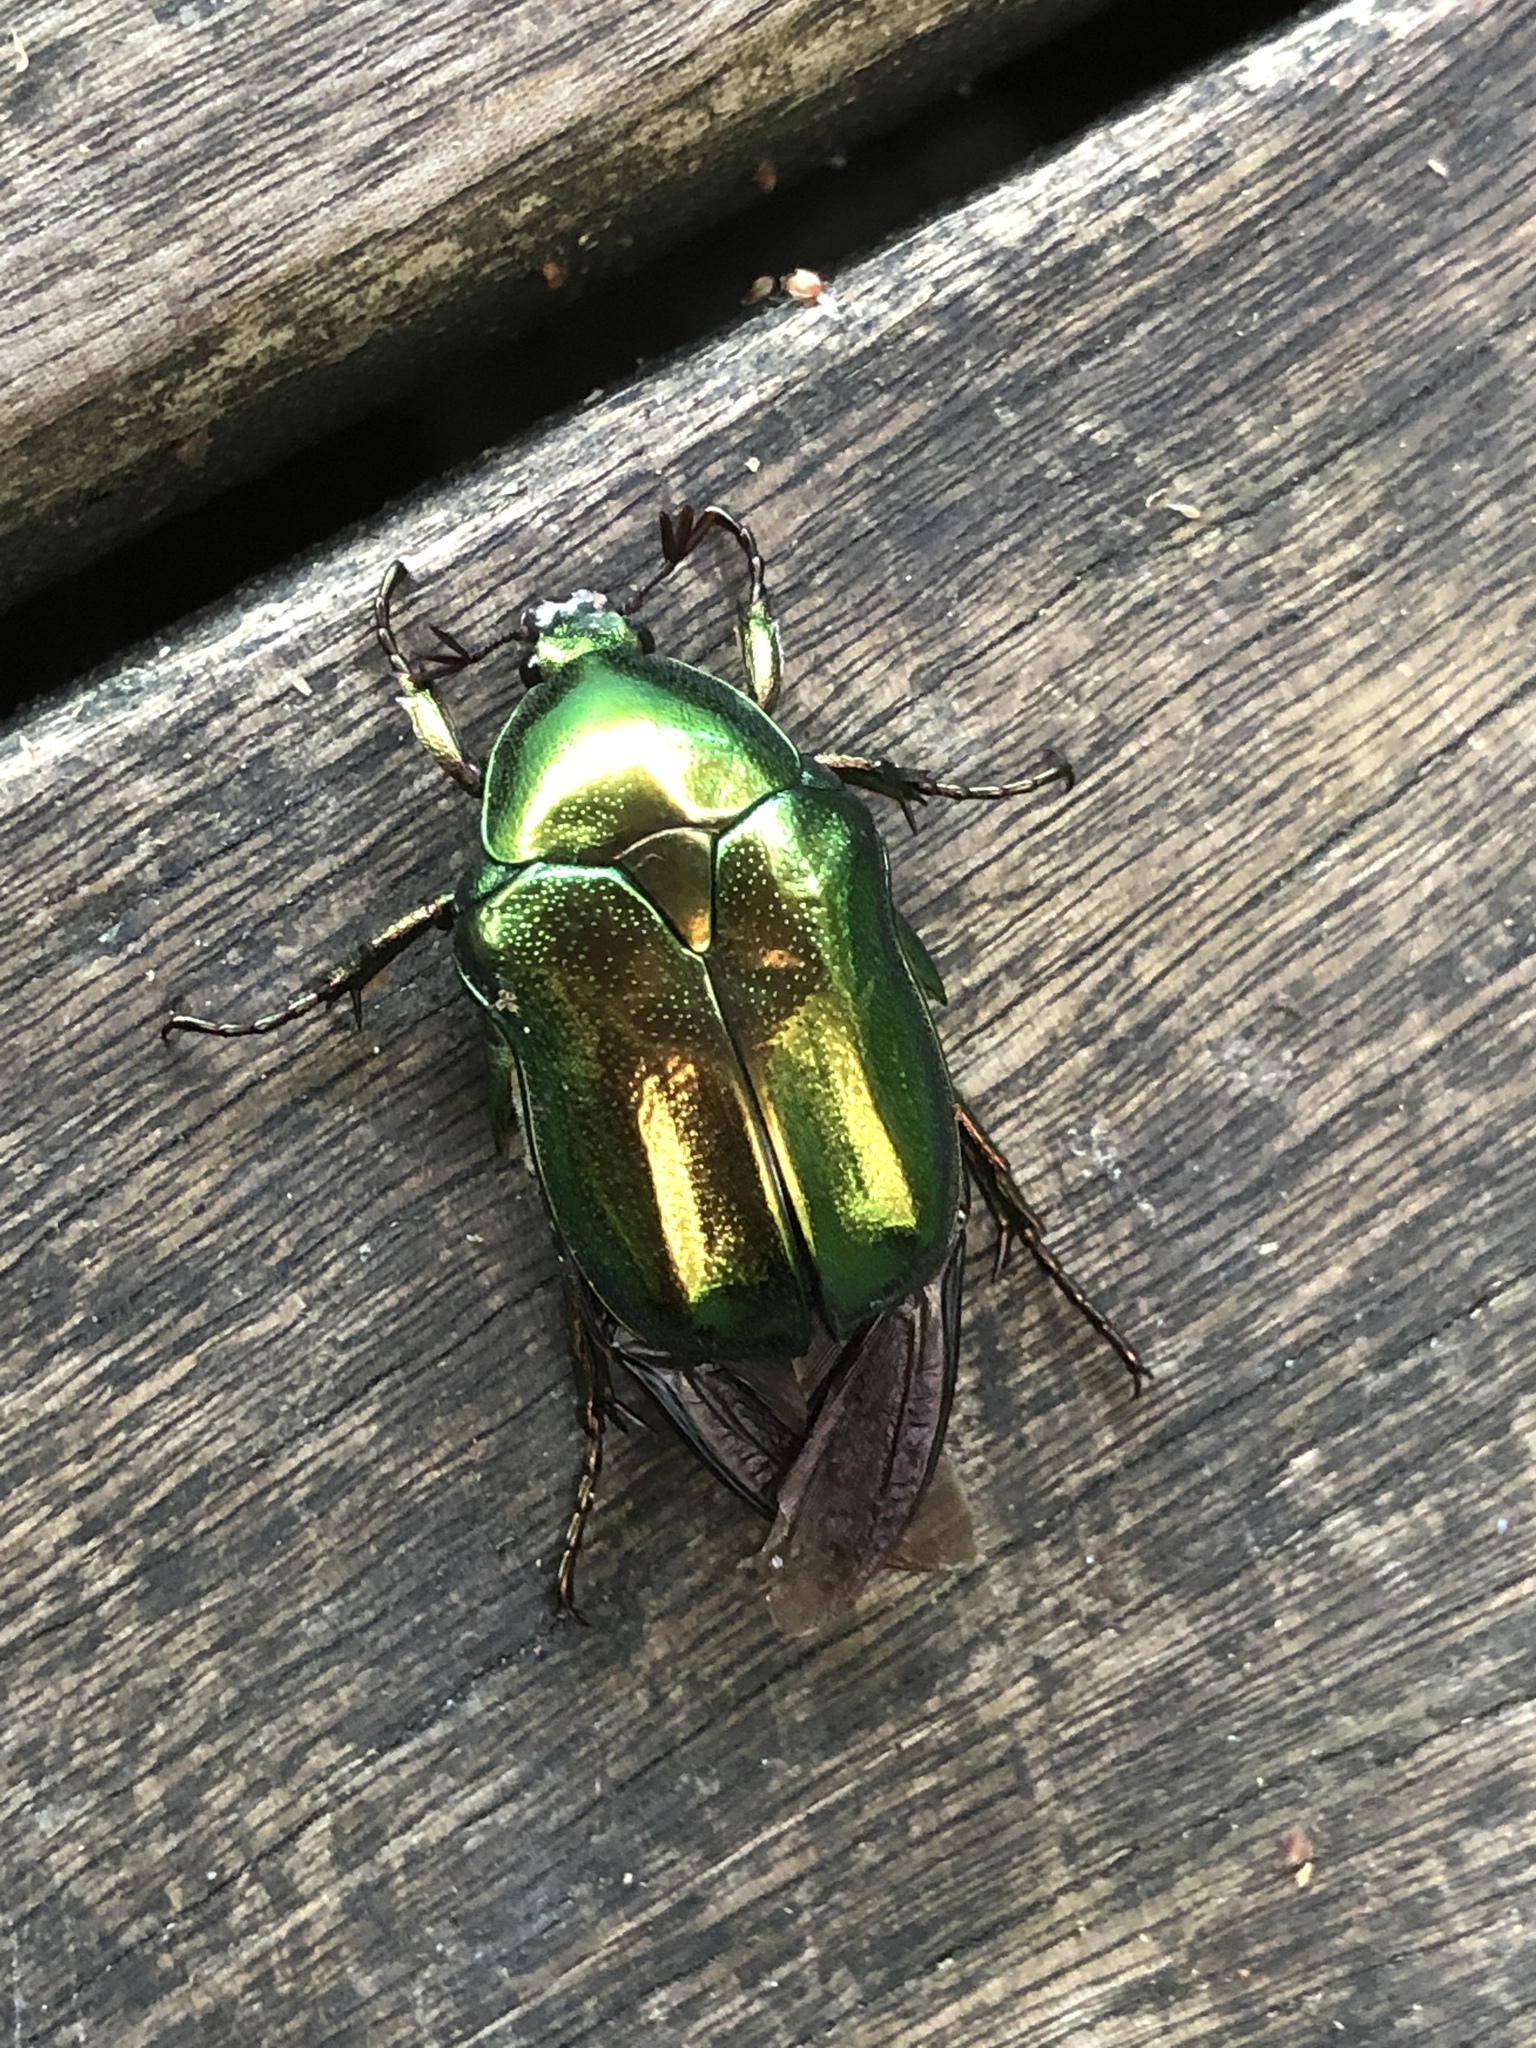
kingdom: Animalia
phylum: Arthropoda
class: Insecta
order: Coleoptera
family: Scarabaeidae
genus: Protaetia
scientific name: Protaetia pryeri
